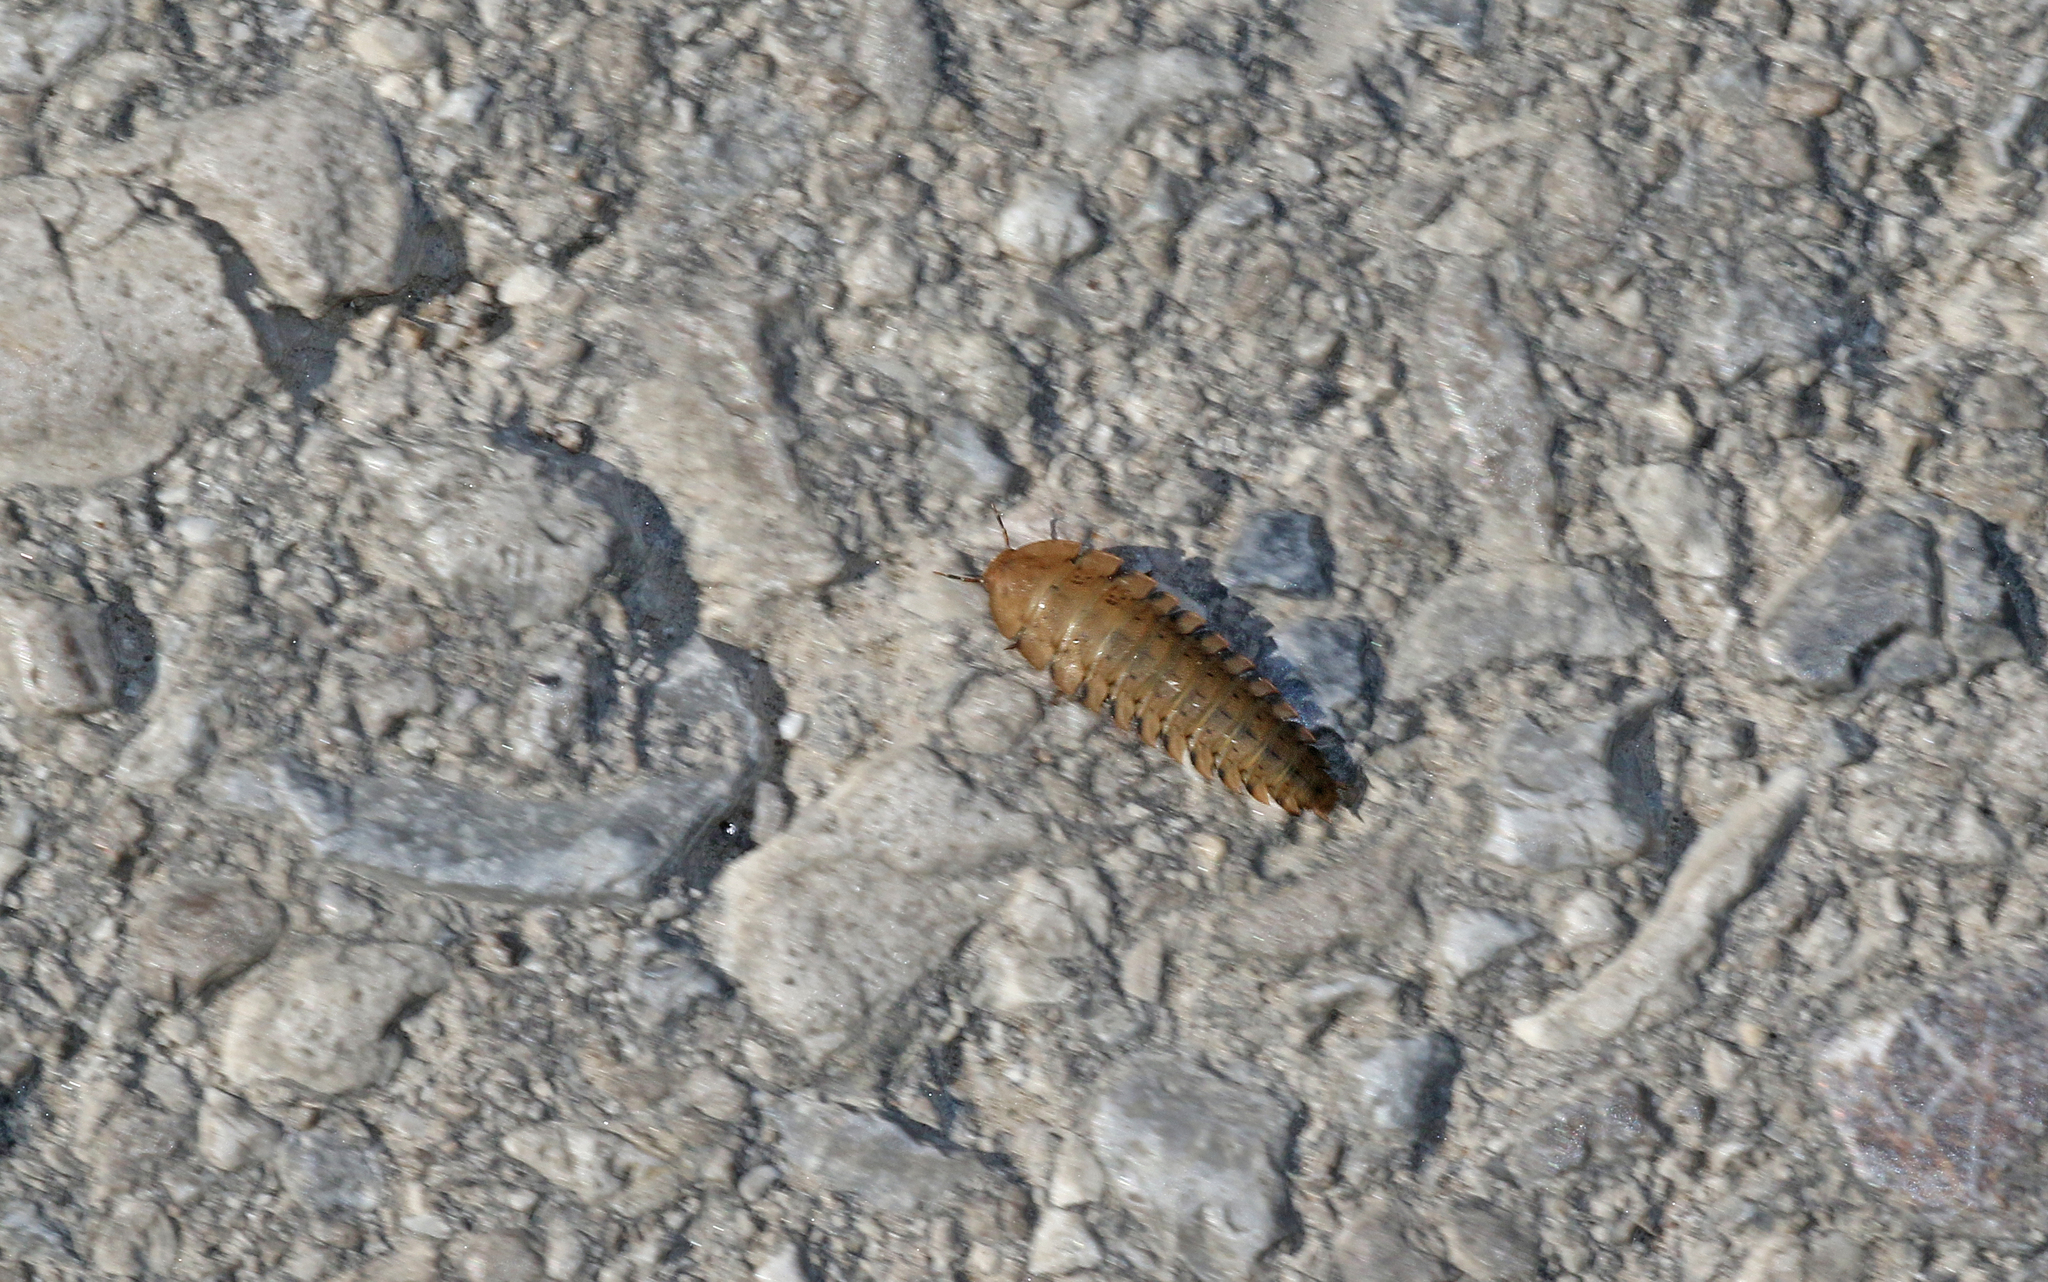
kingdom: Animalia
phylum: Arthropoda
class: Insecta
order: Coleoptera
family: Staphylinidae
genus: Silpha
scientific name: Silpha obscura
